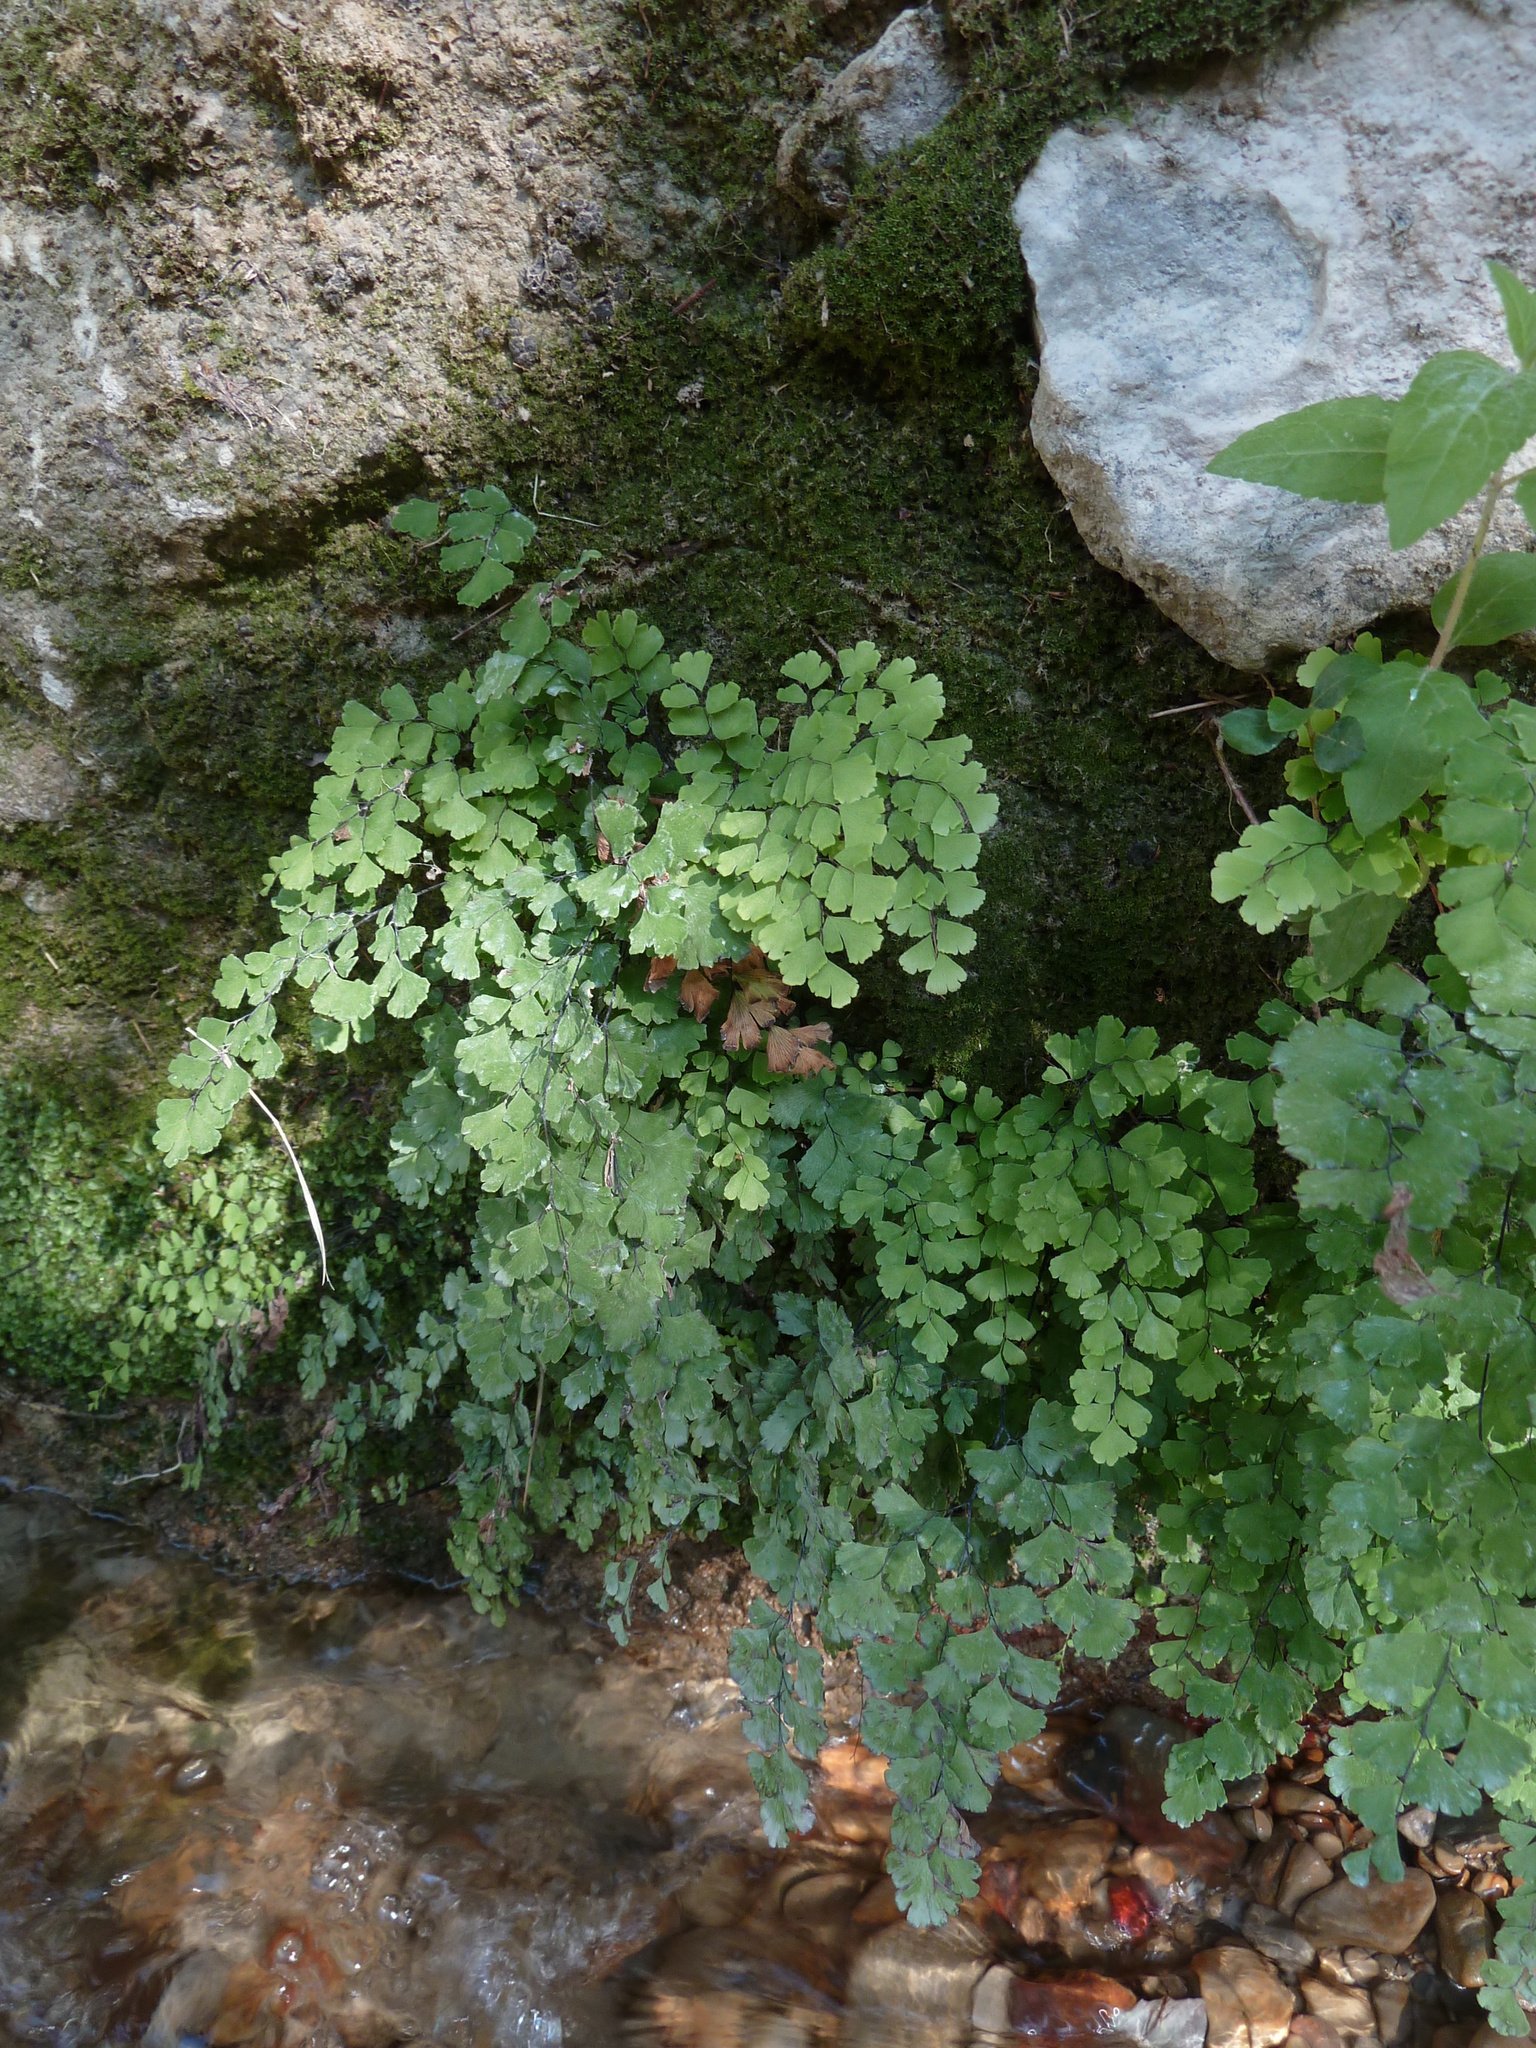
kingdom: Plantae
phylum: Tracheophyta
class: Polypodiopsida
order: Polypodiales
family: Pteridaceae
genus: Adiantum
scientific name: Adiantum capillus-veneris
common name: Maidenhair fern
